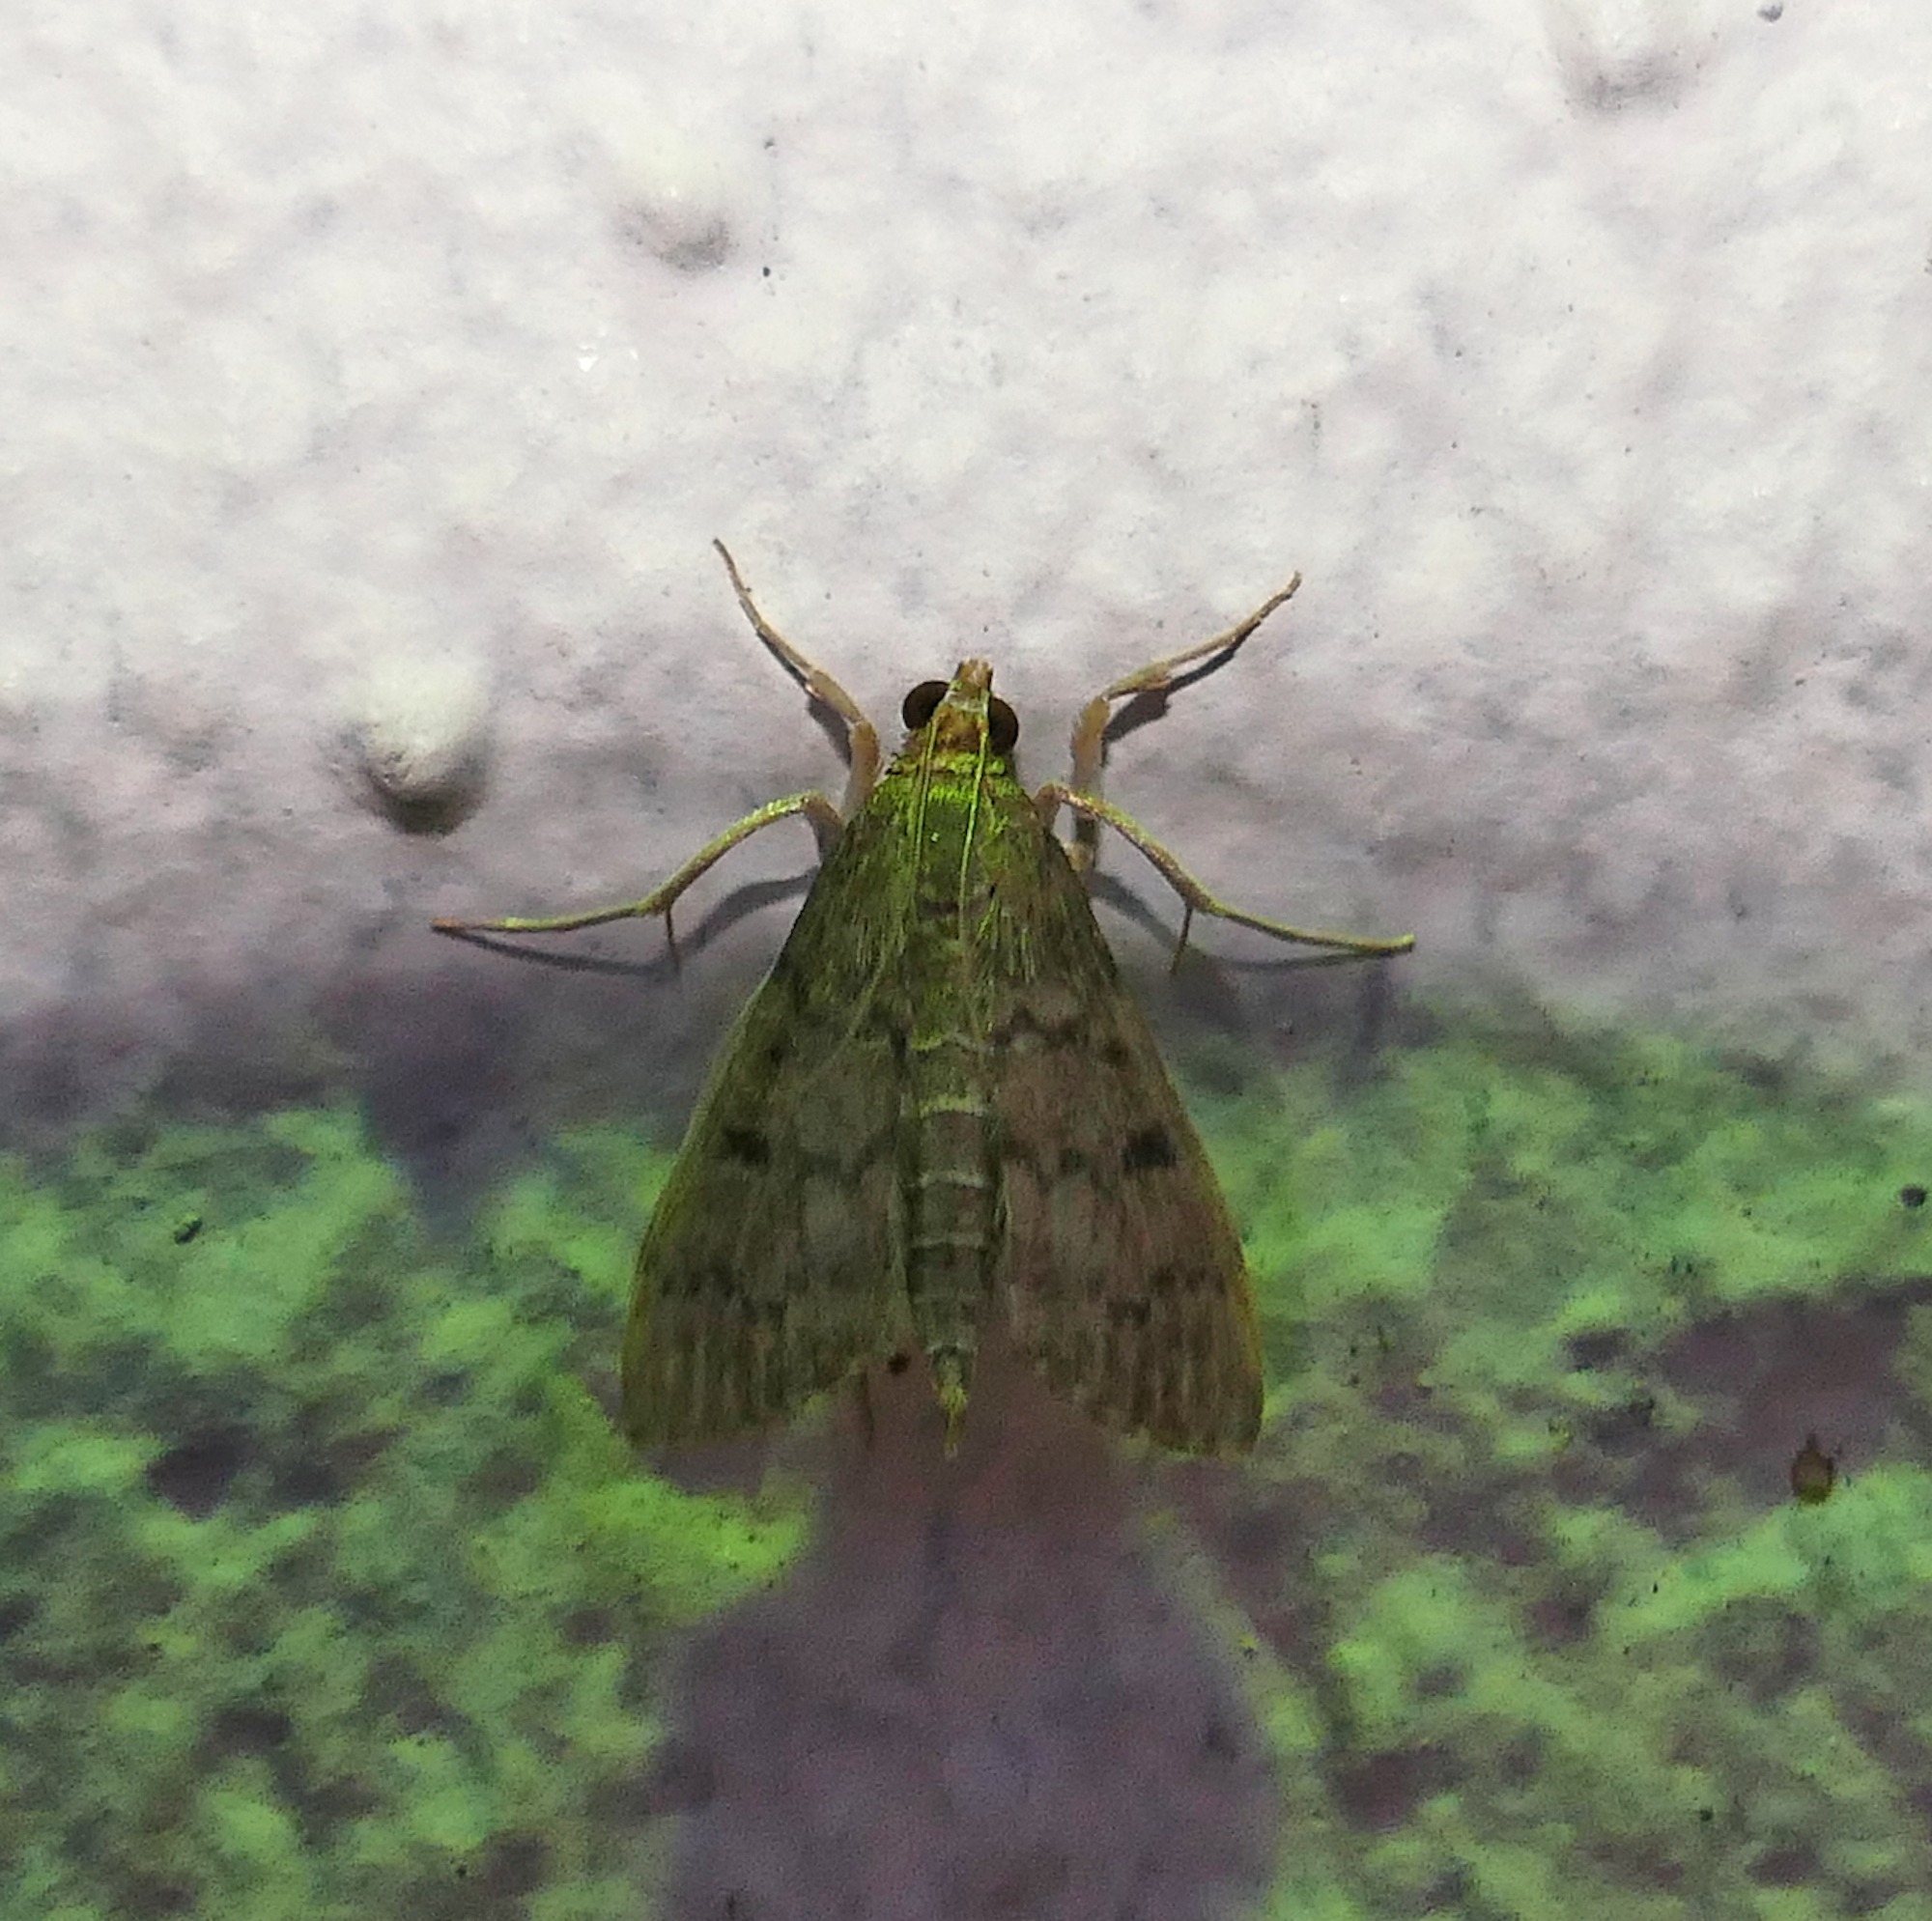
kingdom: Animalia
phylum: Arthropoda
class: Insecta
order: Lepidoptera
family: Crambidae
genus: Herpetogramma
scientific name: Herpetogramma phaeopteralis
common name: Dusky herpetogramma moth
